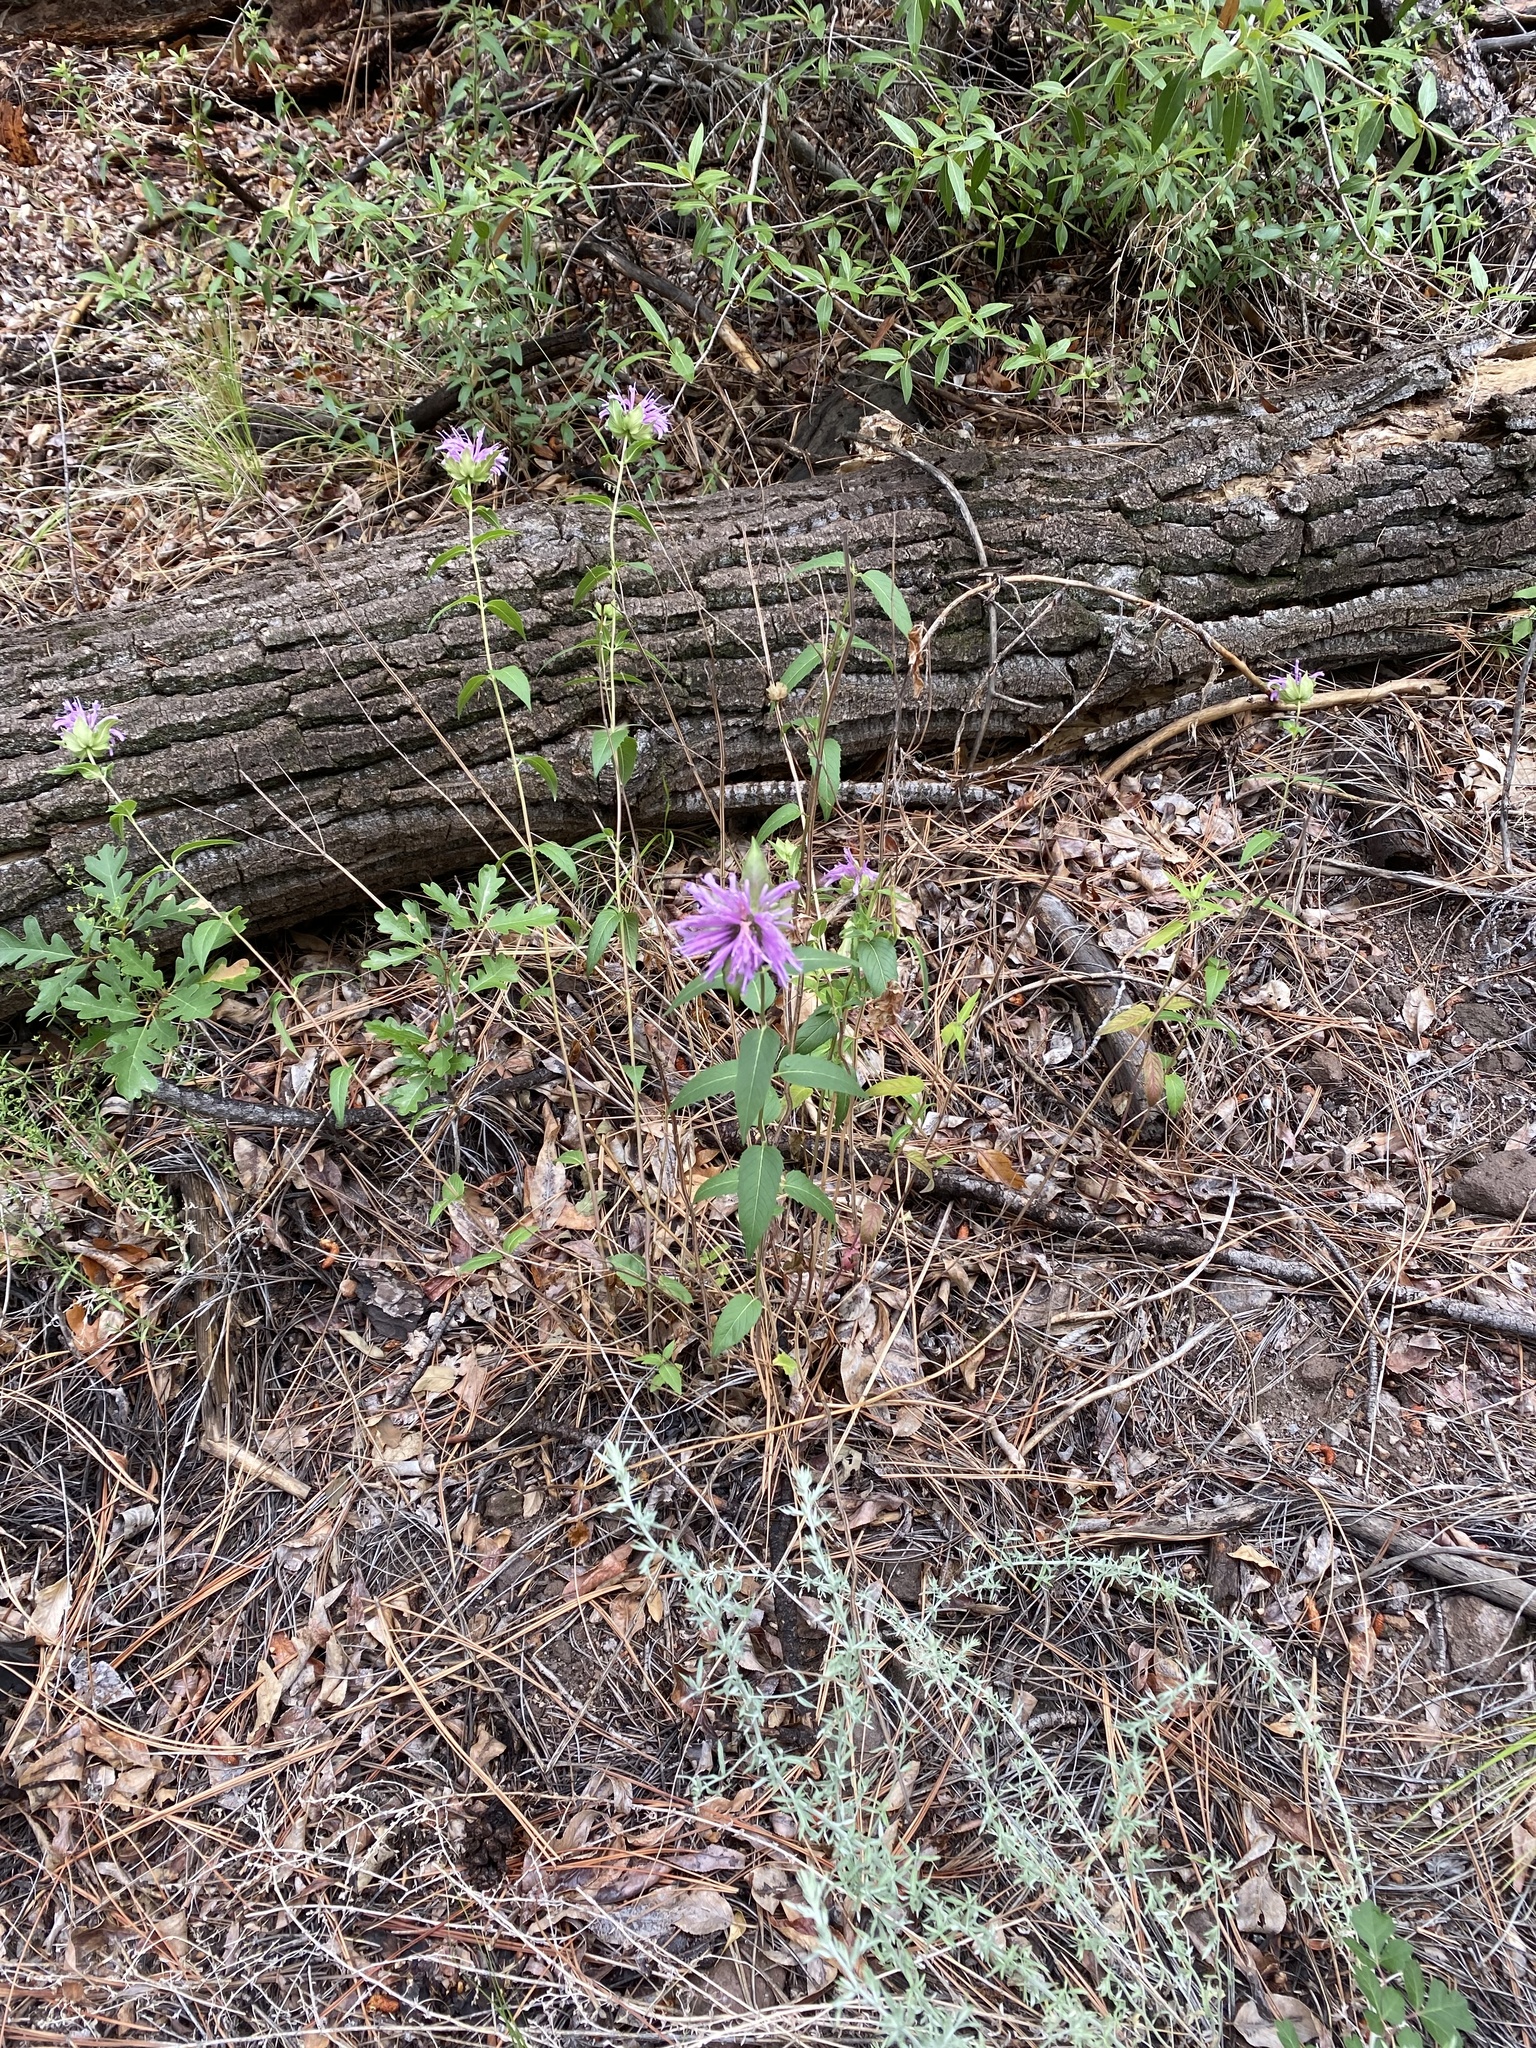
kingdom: Plantae
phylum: Tracheophyta
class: Magnoliopsida
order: Lamiales
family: Lamiaceae
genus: Monarda
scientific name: Monarda fistulosa
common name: Purple beebalm
